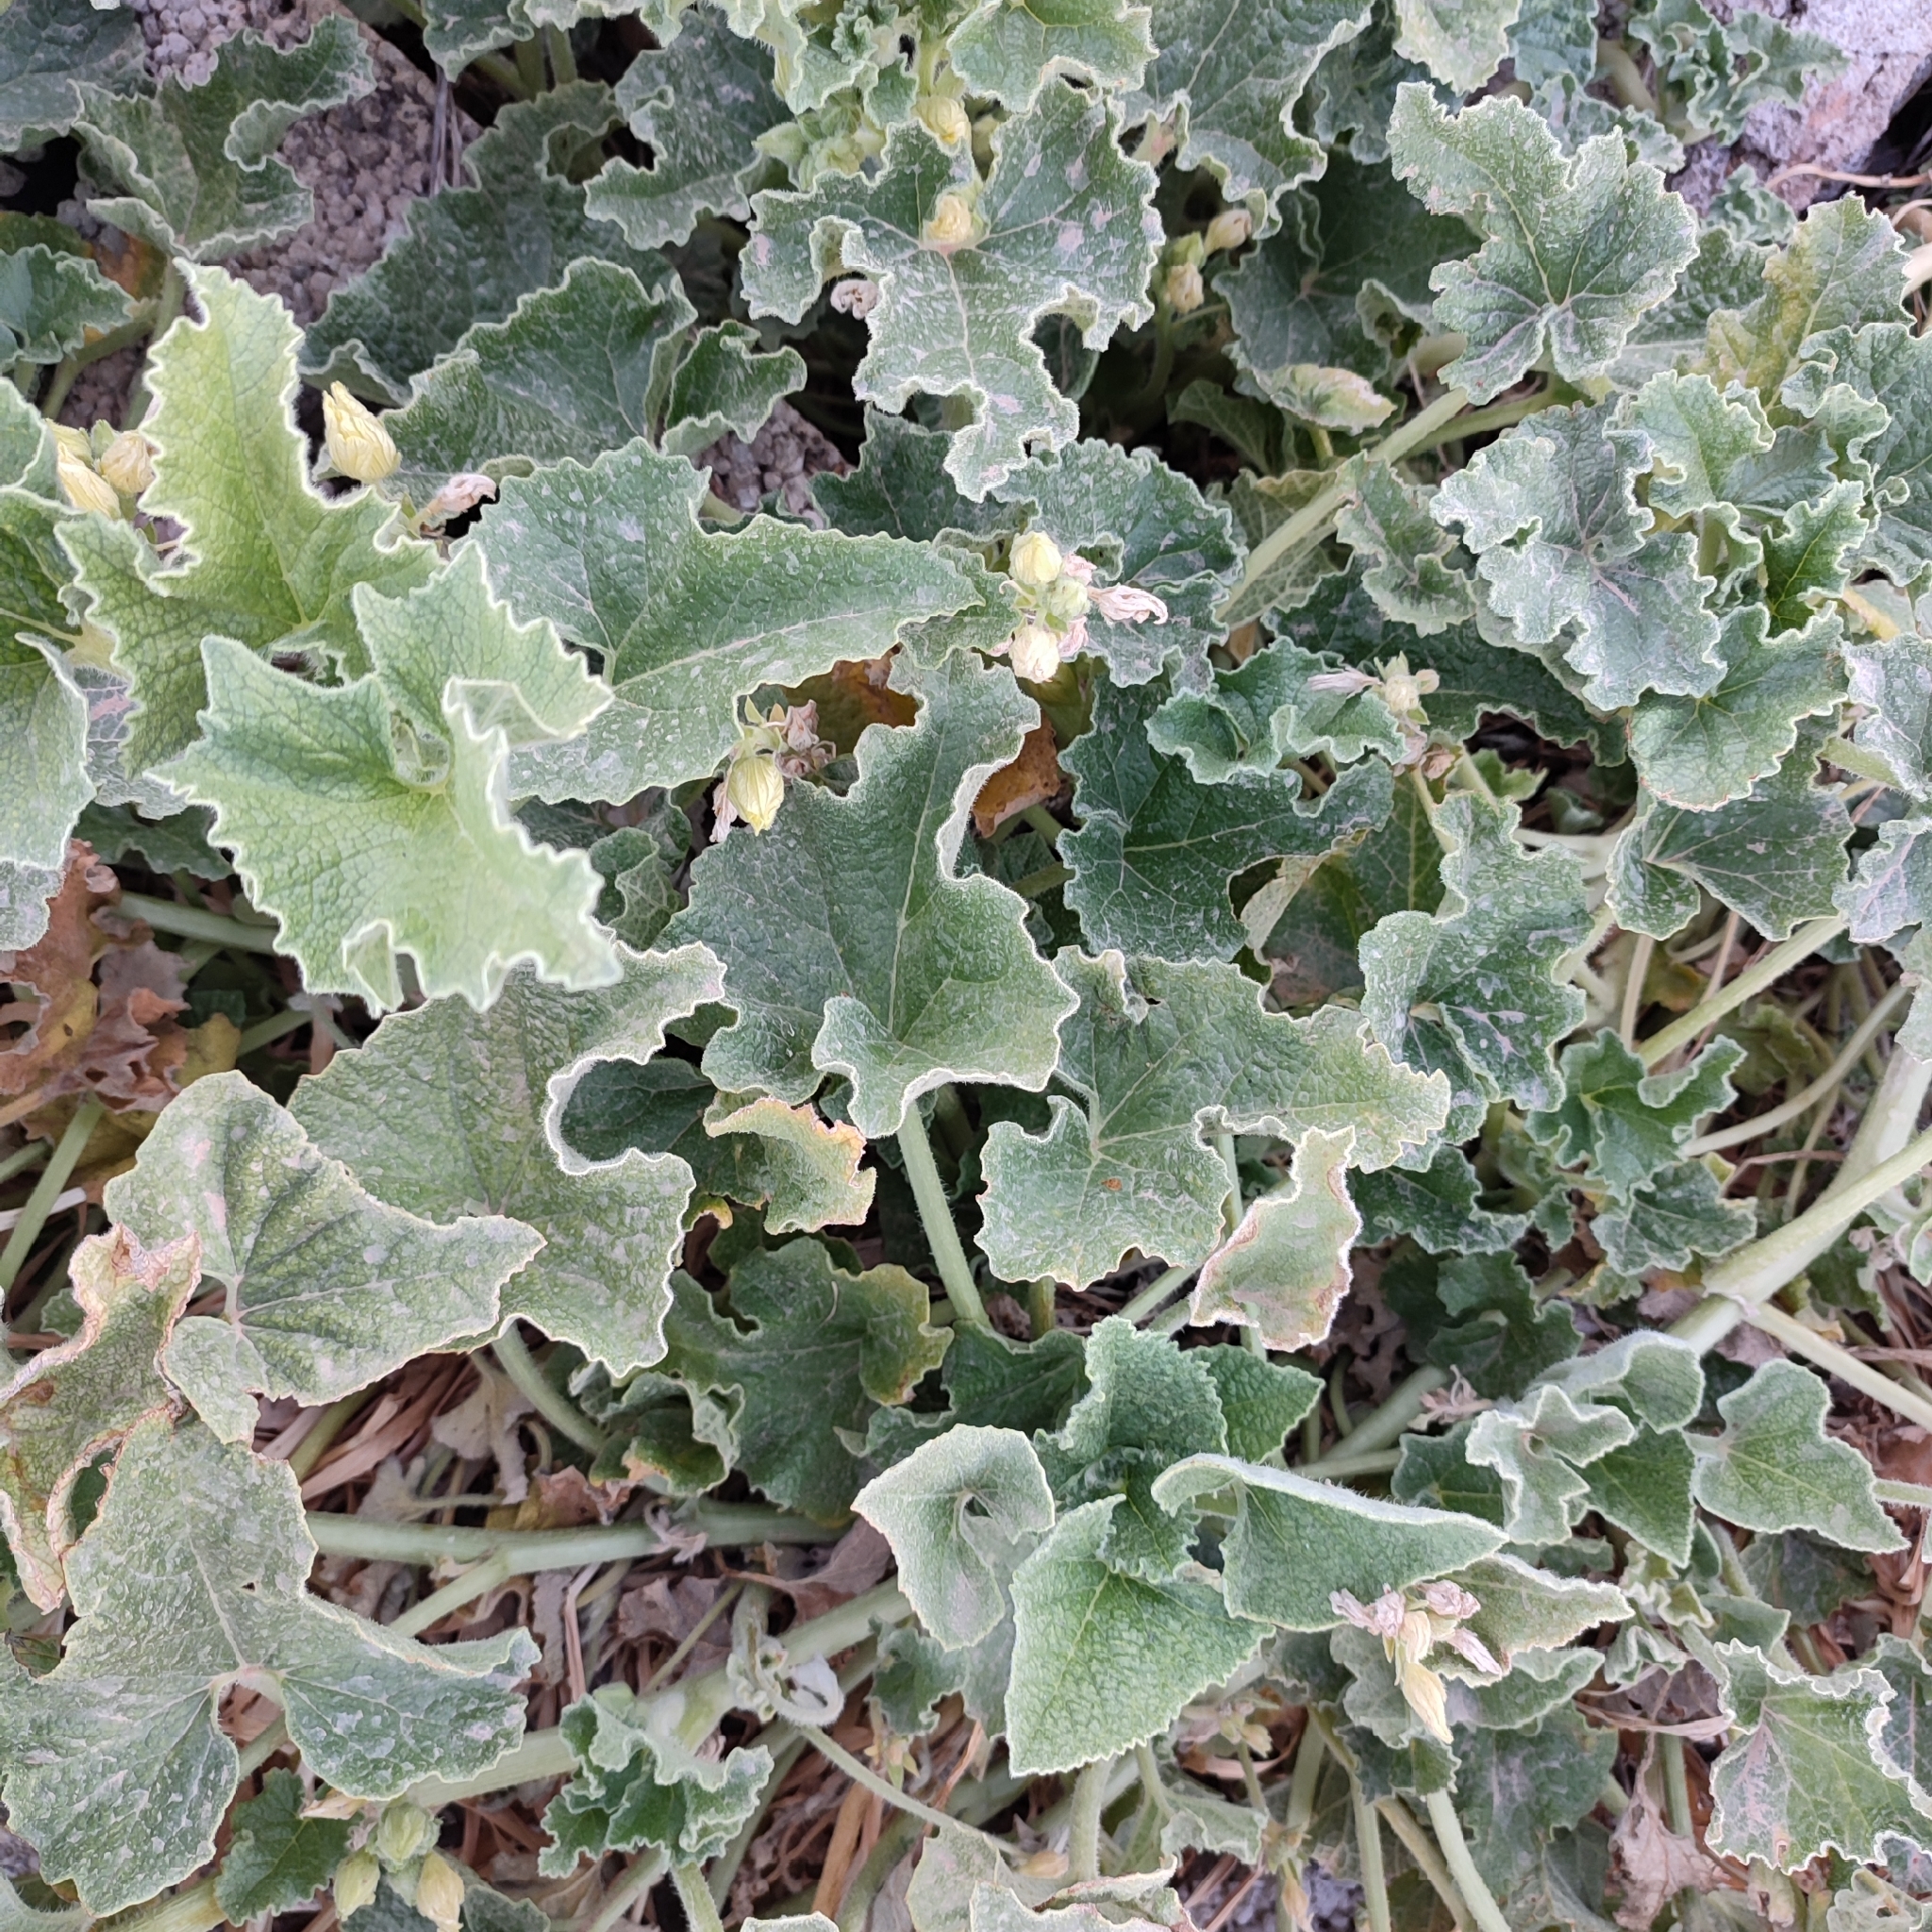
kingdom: Plantae
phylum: Tracheophyta
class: Magnoliopsida
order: Cucurbitales
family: Cucurbitaceae
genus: Ecballium
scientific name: Ecballium elaterium
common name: Squirting cucumber
